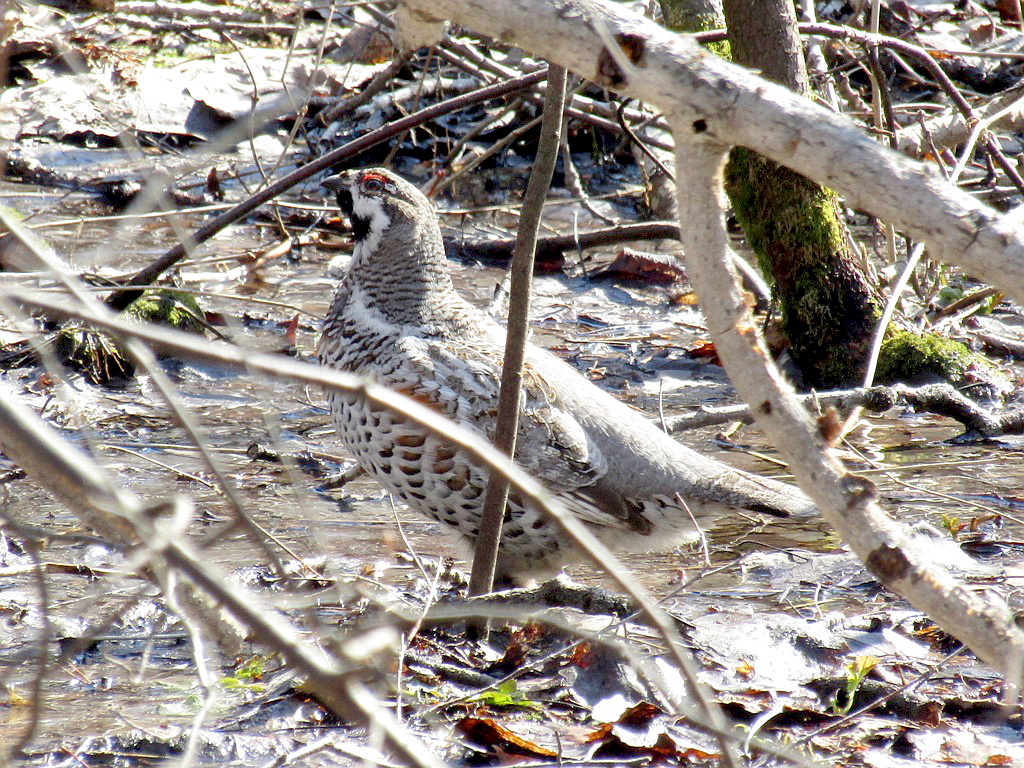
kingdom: Animalia
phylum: Chordata
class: Aves
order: Galliformes
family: Phasianidae
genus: Tetrastes
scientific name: Tetrastes bonasia
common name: Hazel grouse
